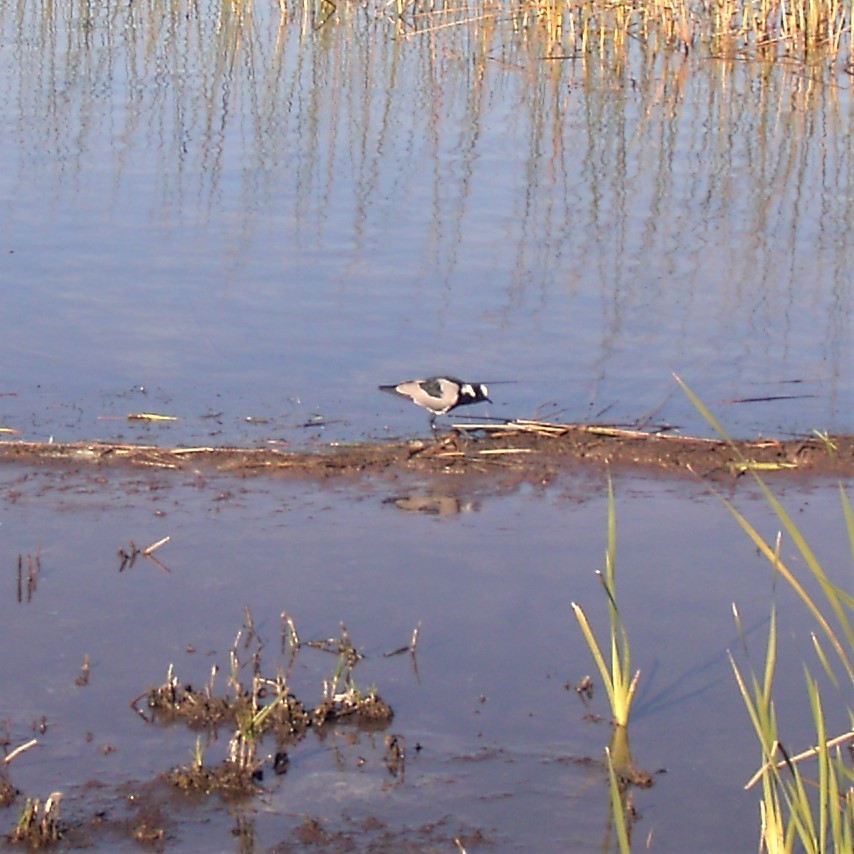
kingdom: Animalia
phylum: Chordata
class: Aves
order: Charadriiformes
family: Charadriidae
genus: Vanellus
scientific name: Vanellus armatus
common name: Blacksmith lapwing
